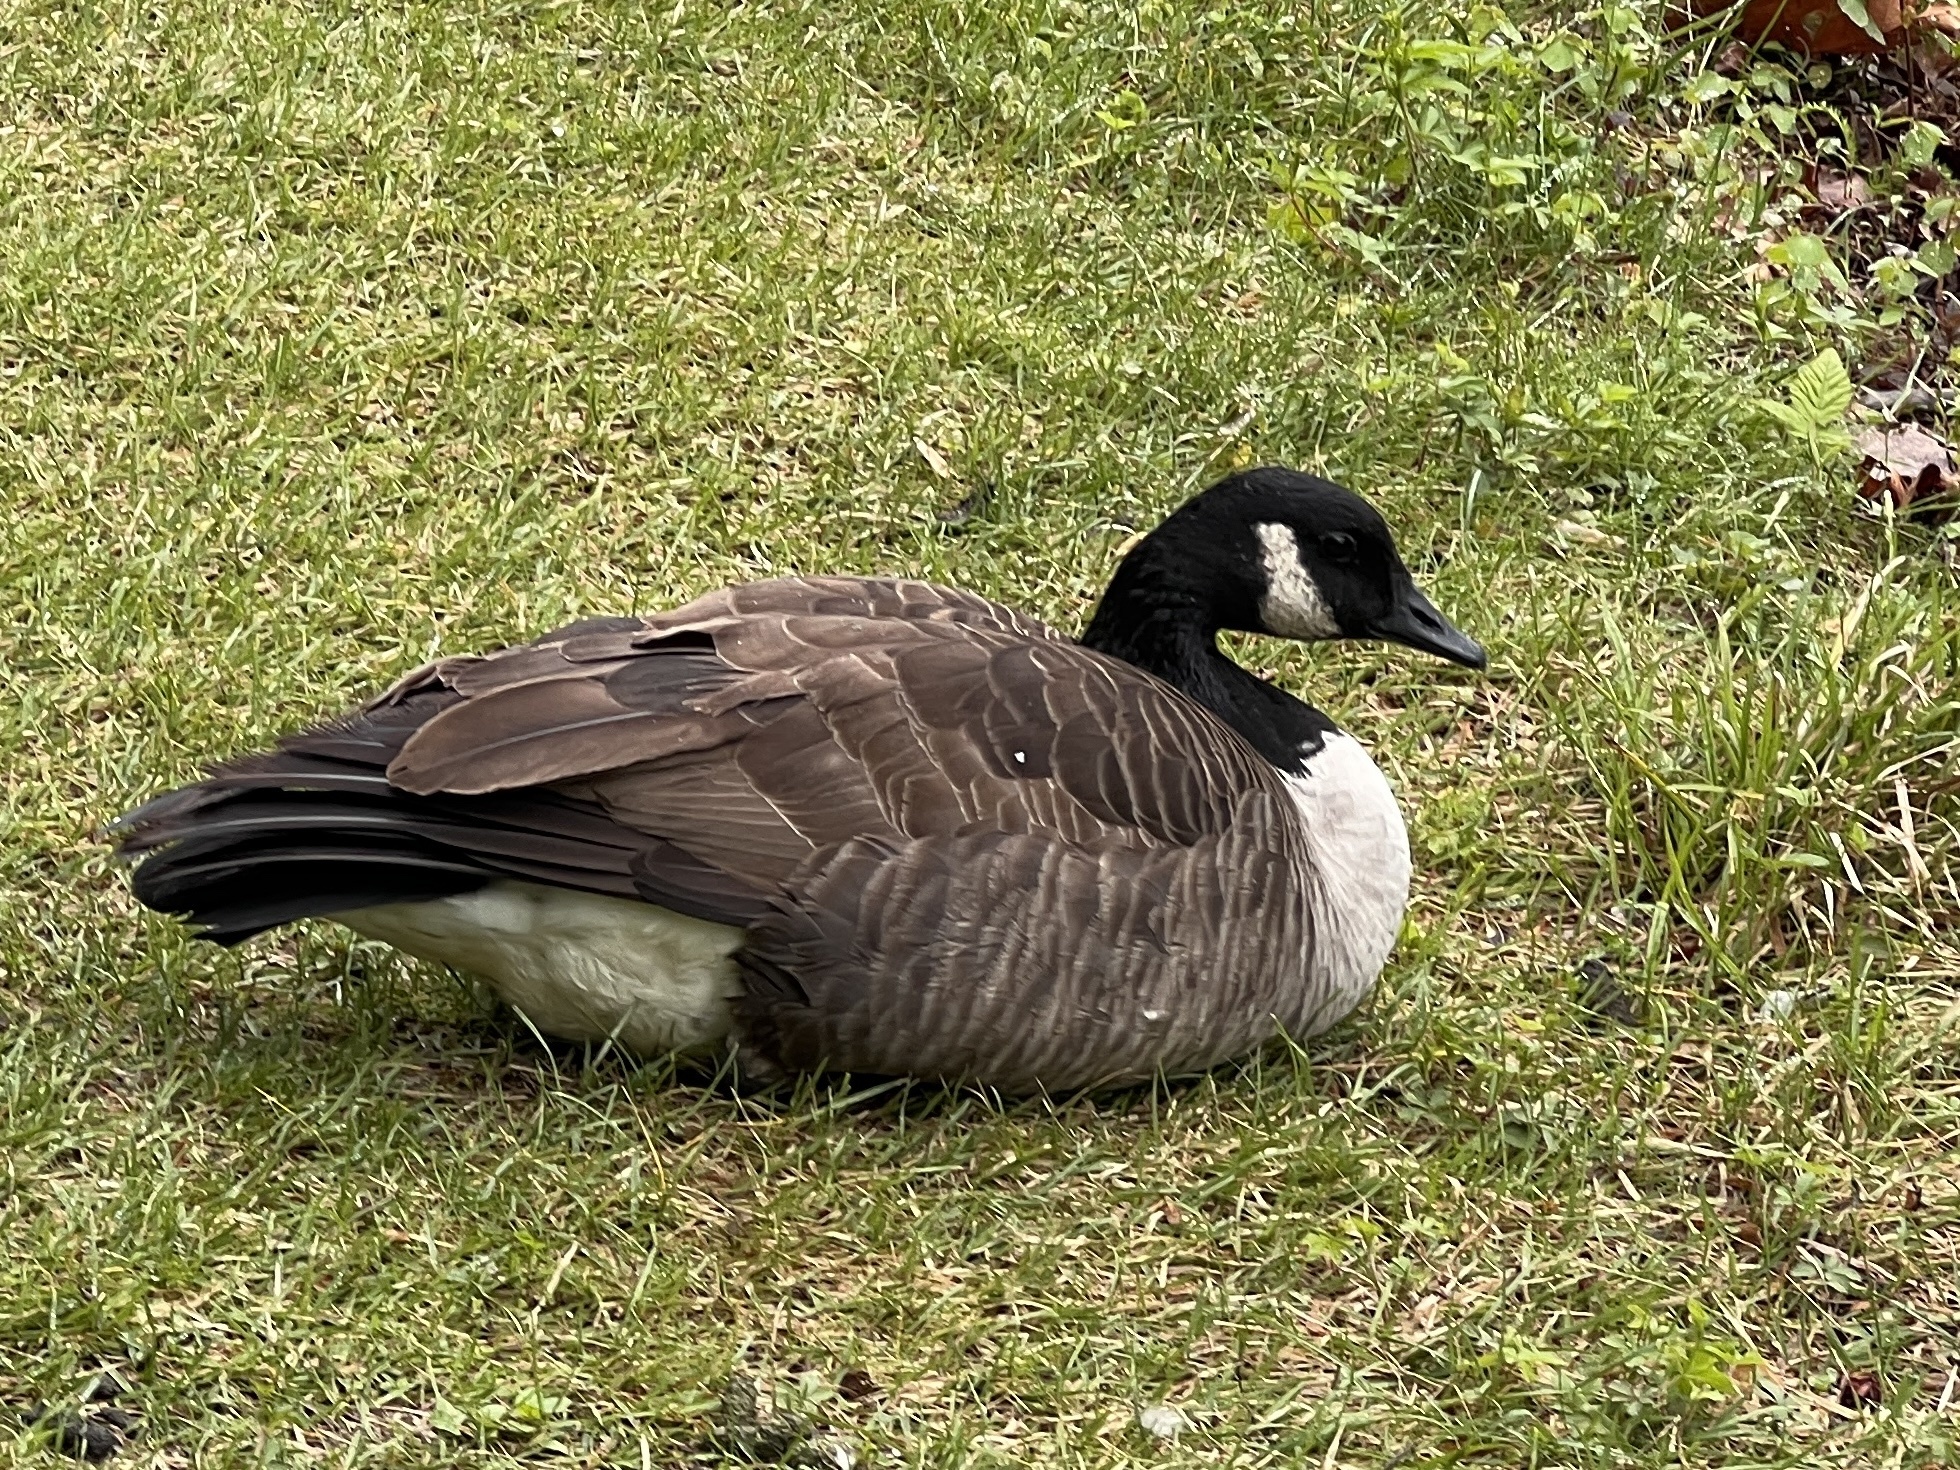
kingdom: Animalia
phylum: Chordata
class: Aves
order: Anseriformes
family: Anatidae
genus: Branta
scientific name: Branta canadensis
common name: Canada goose
